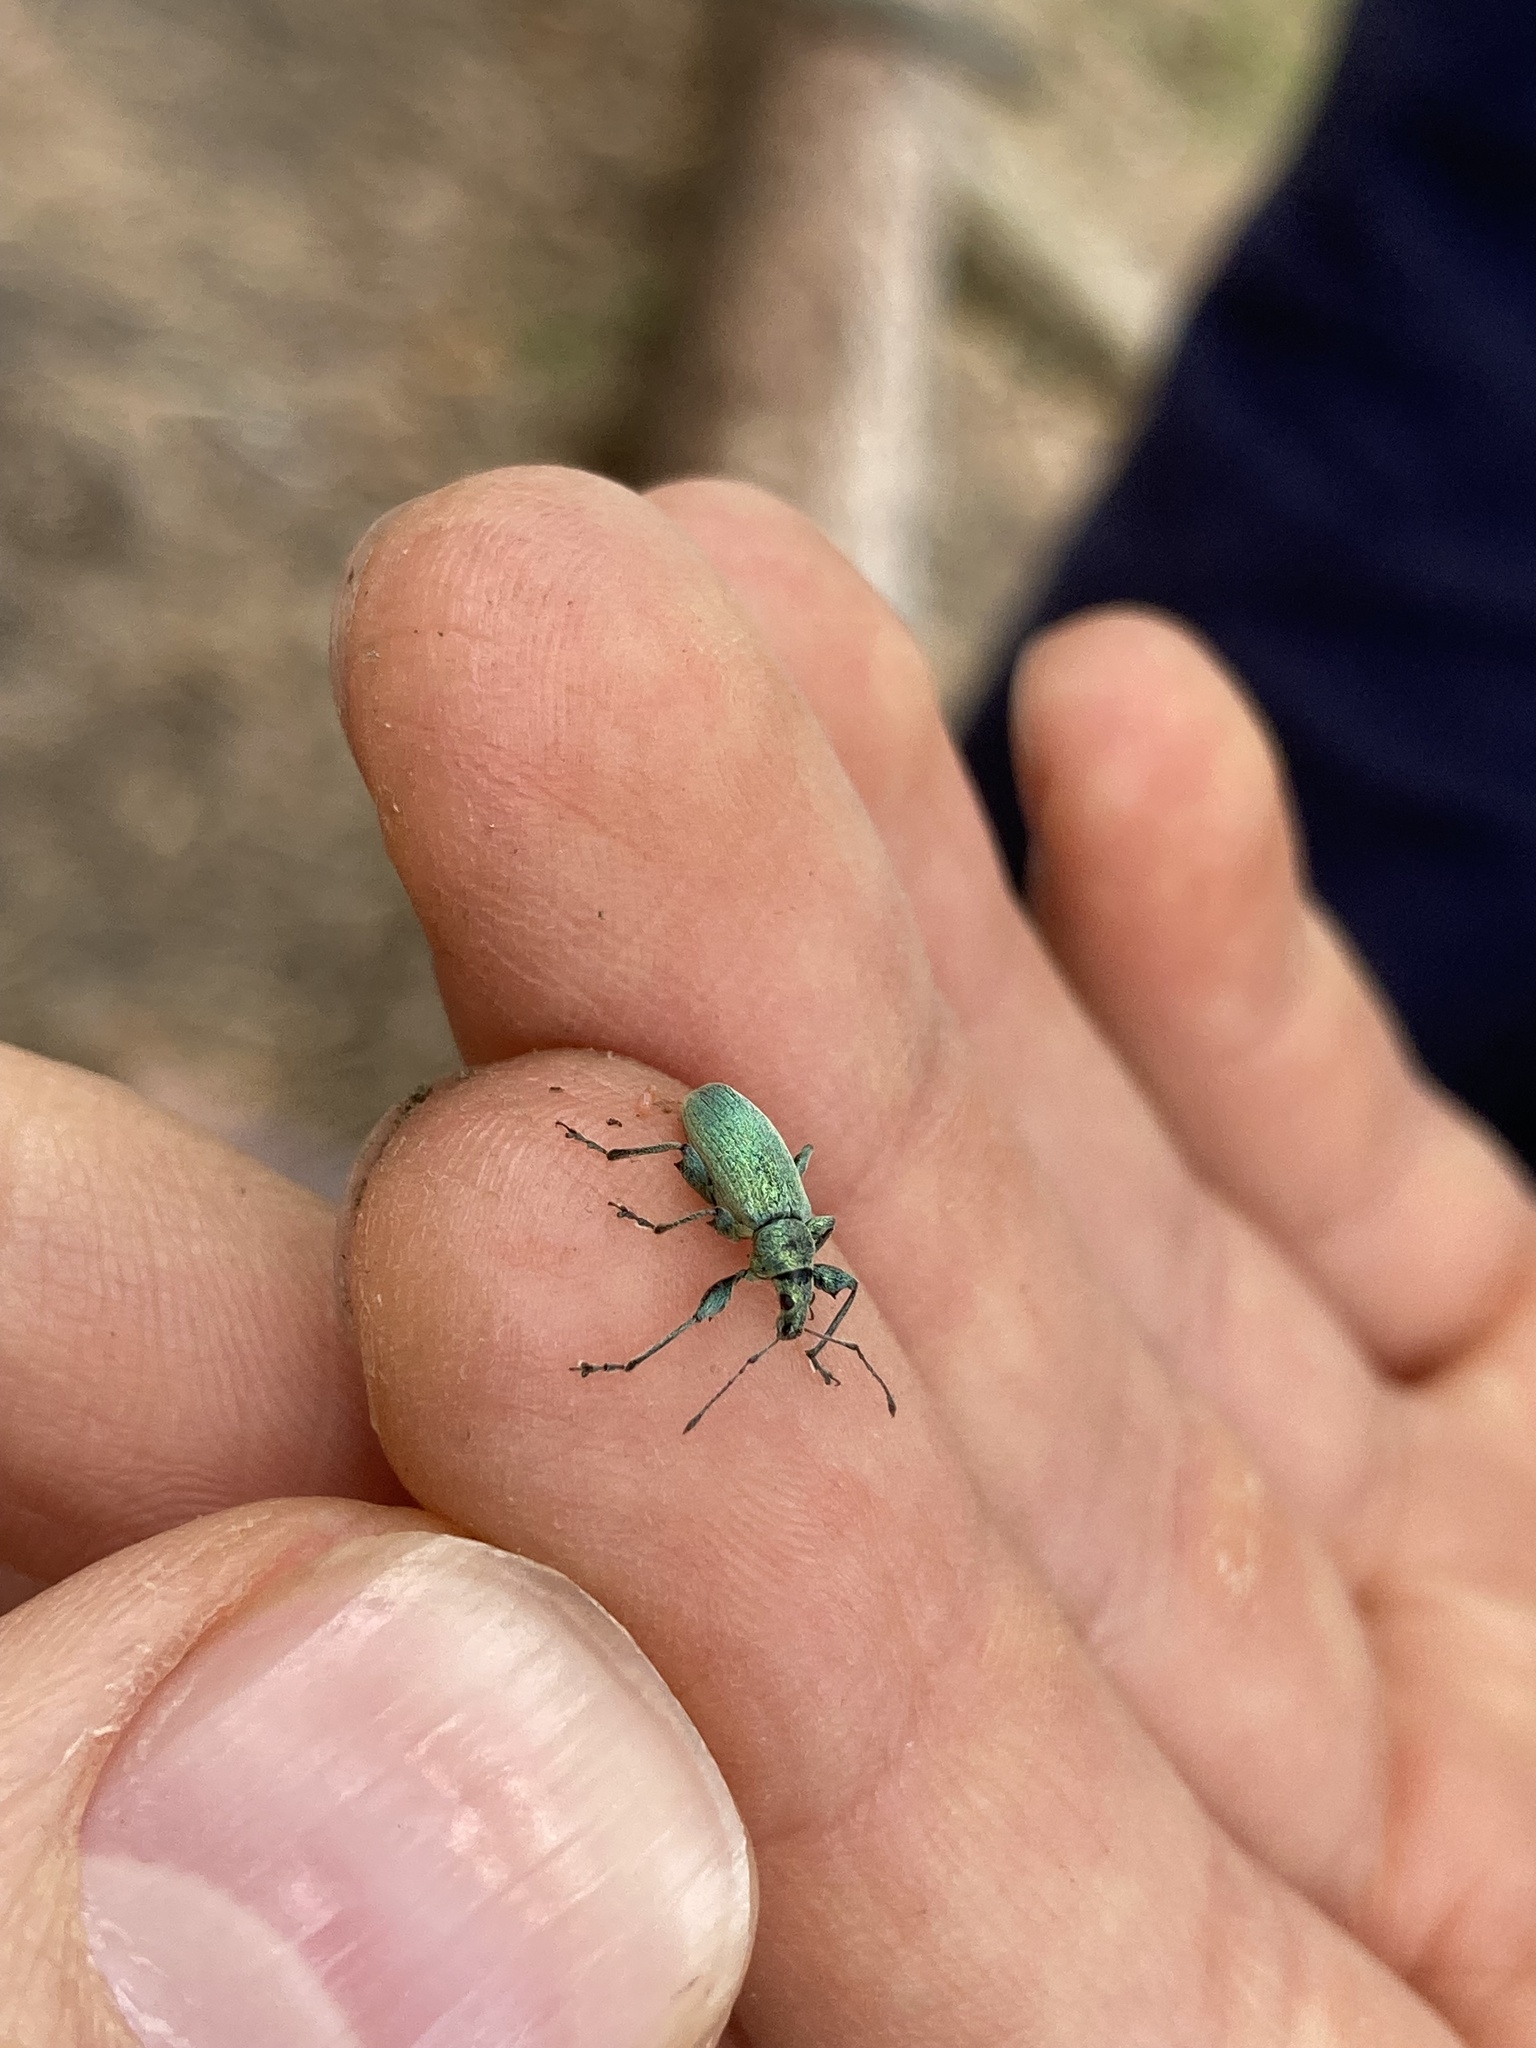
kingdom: Animalia
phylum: Arthropoda
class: Insecta
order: Coleoptera
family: Curculionidae
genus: Phyllobius
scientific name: Phyllobius pomaceus
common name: Green nettle weevil
